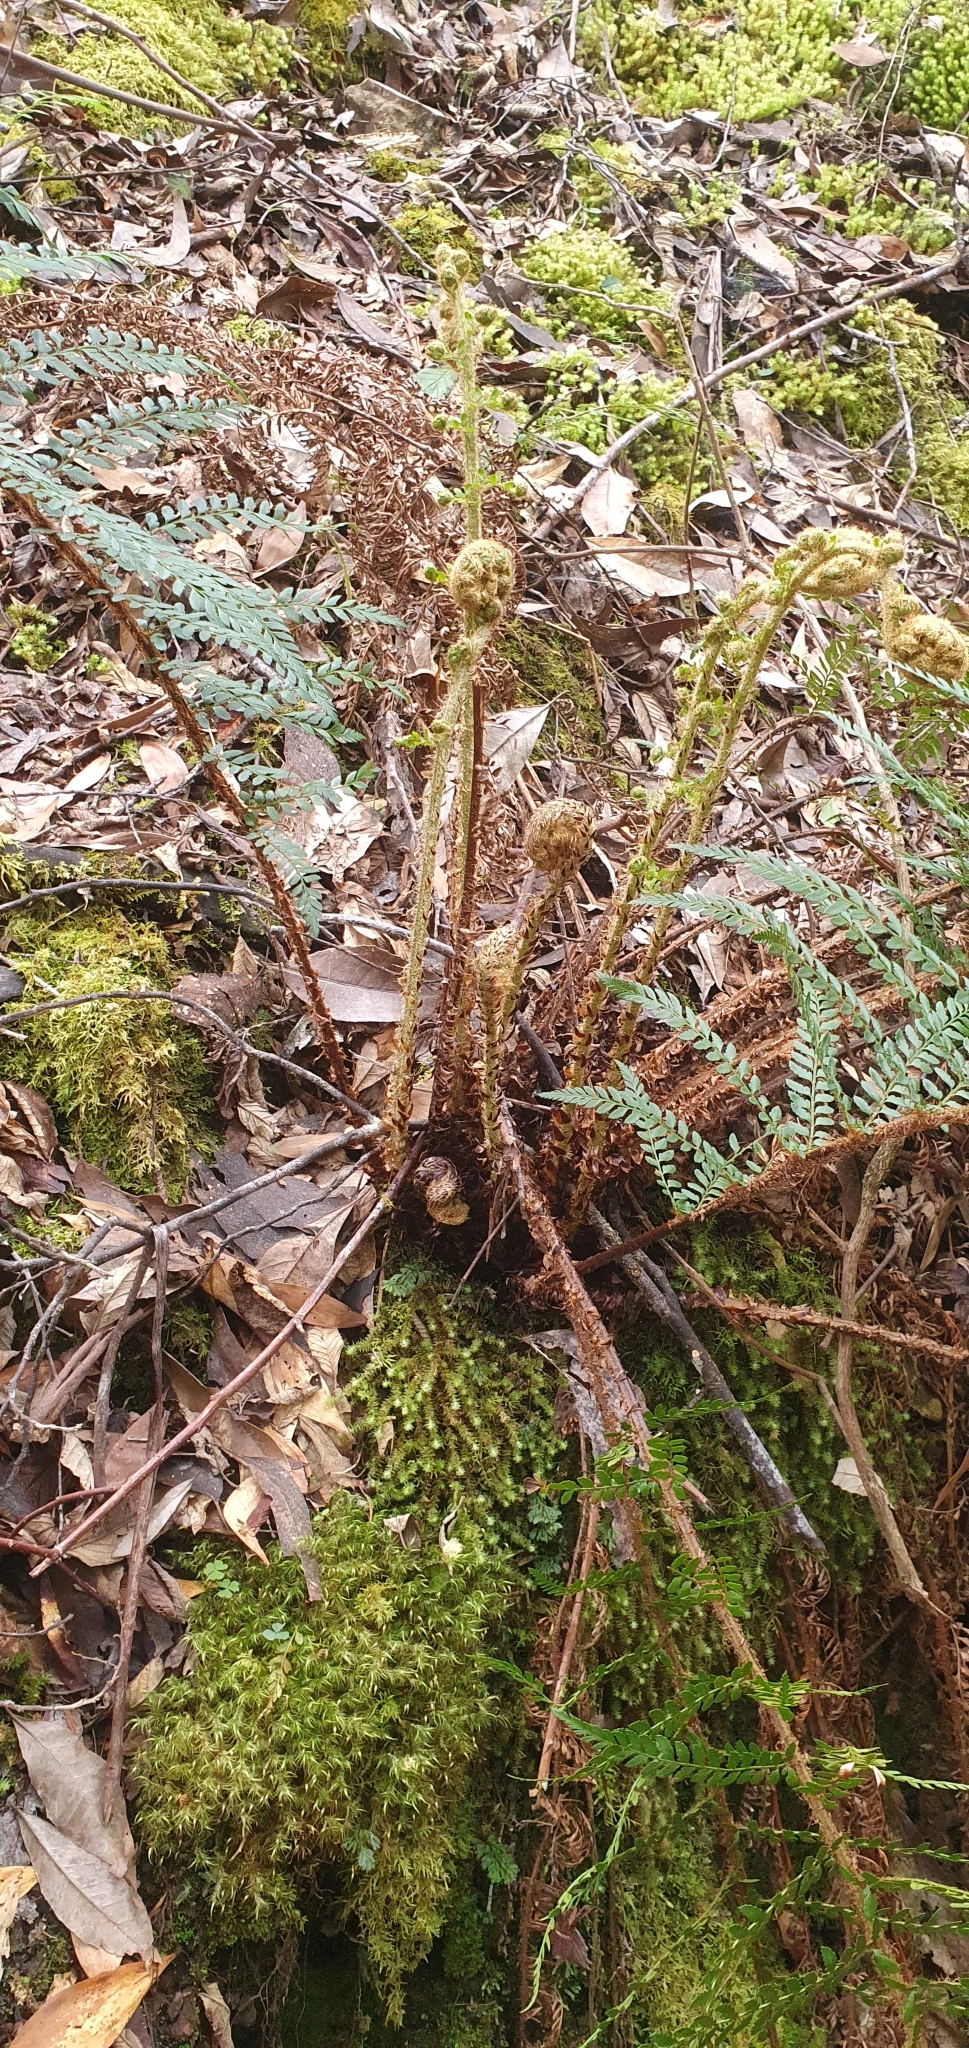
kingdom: Plantae
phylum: Tracheophyta
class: Polypodiopsida
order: Polypodiales
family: Dryopteridaceae
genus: Polystichum
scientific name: Polystichum proliferum
